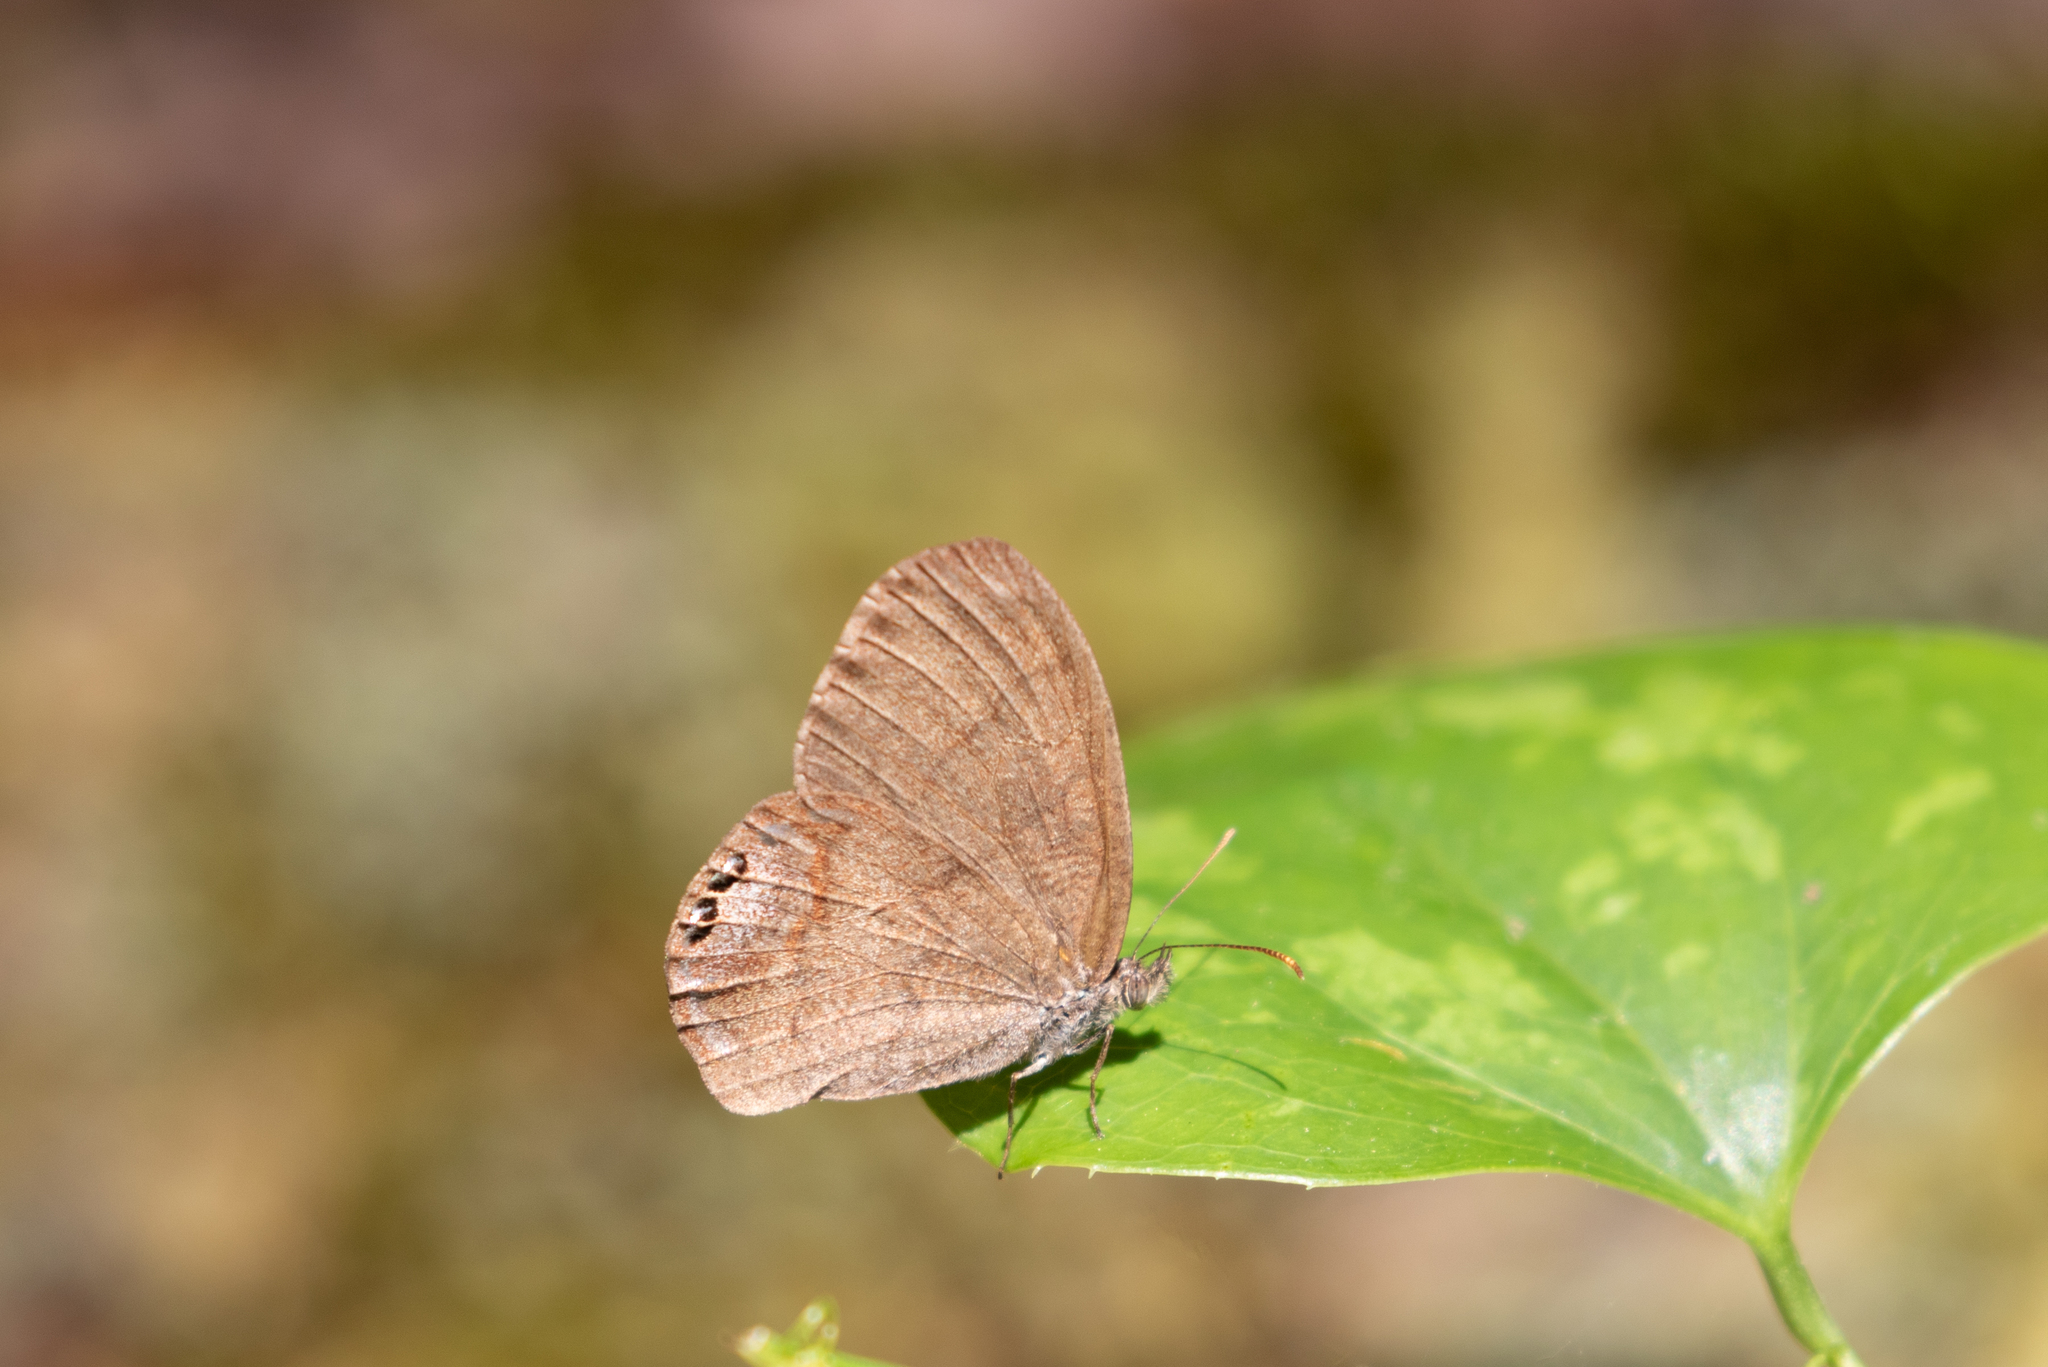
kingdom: Animalia
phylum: Arthropoda
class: Insecta
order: Lepidoptera
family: Nymphalidae
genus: Euptychia
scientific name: Euptychia cornelius
